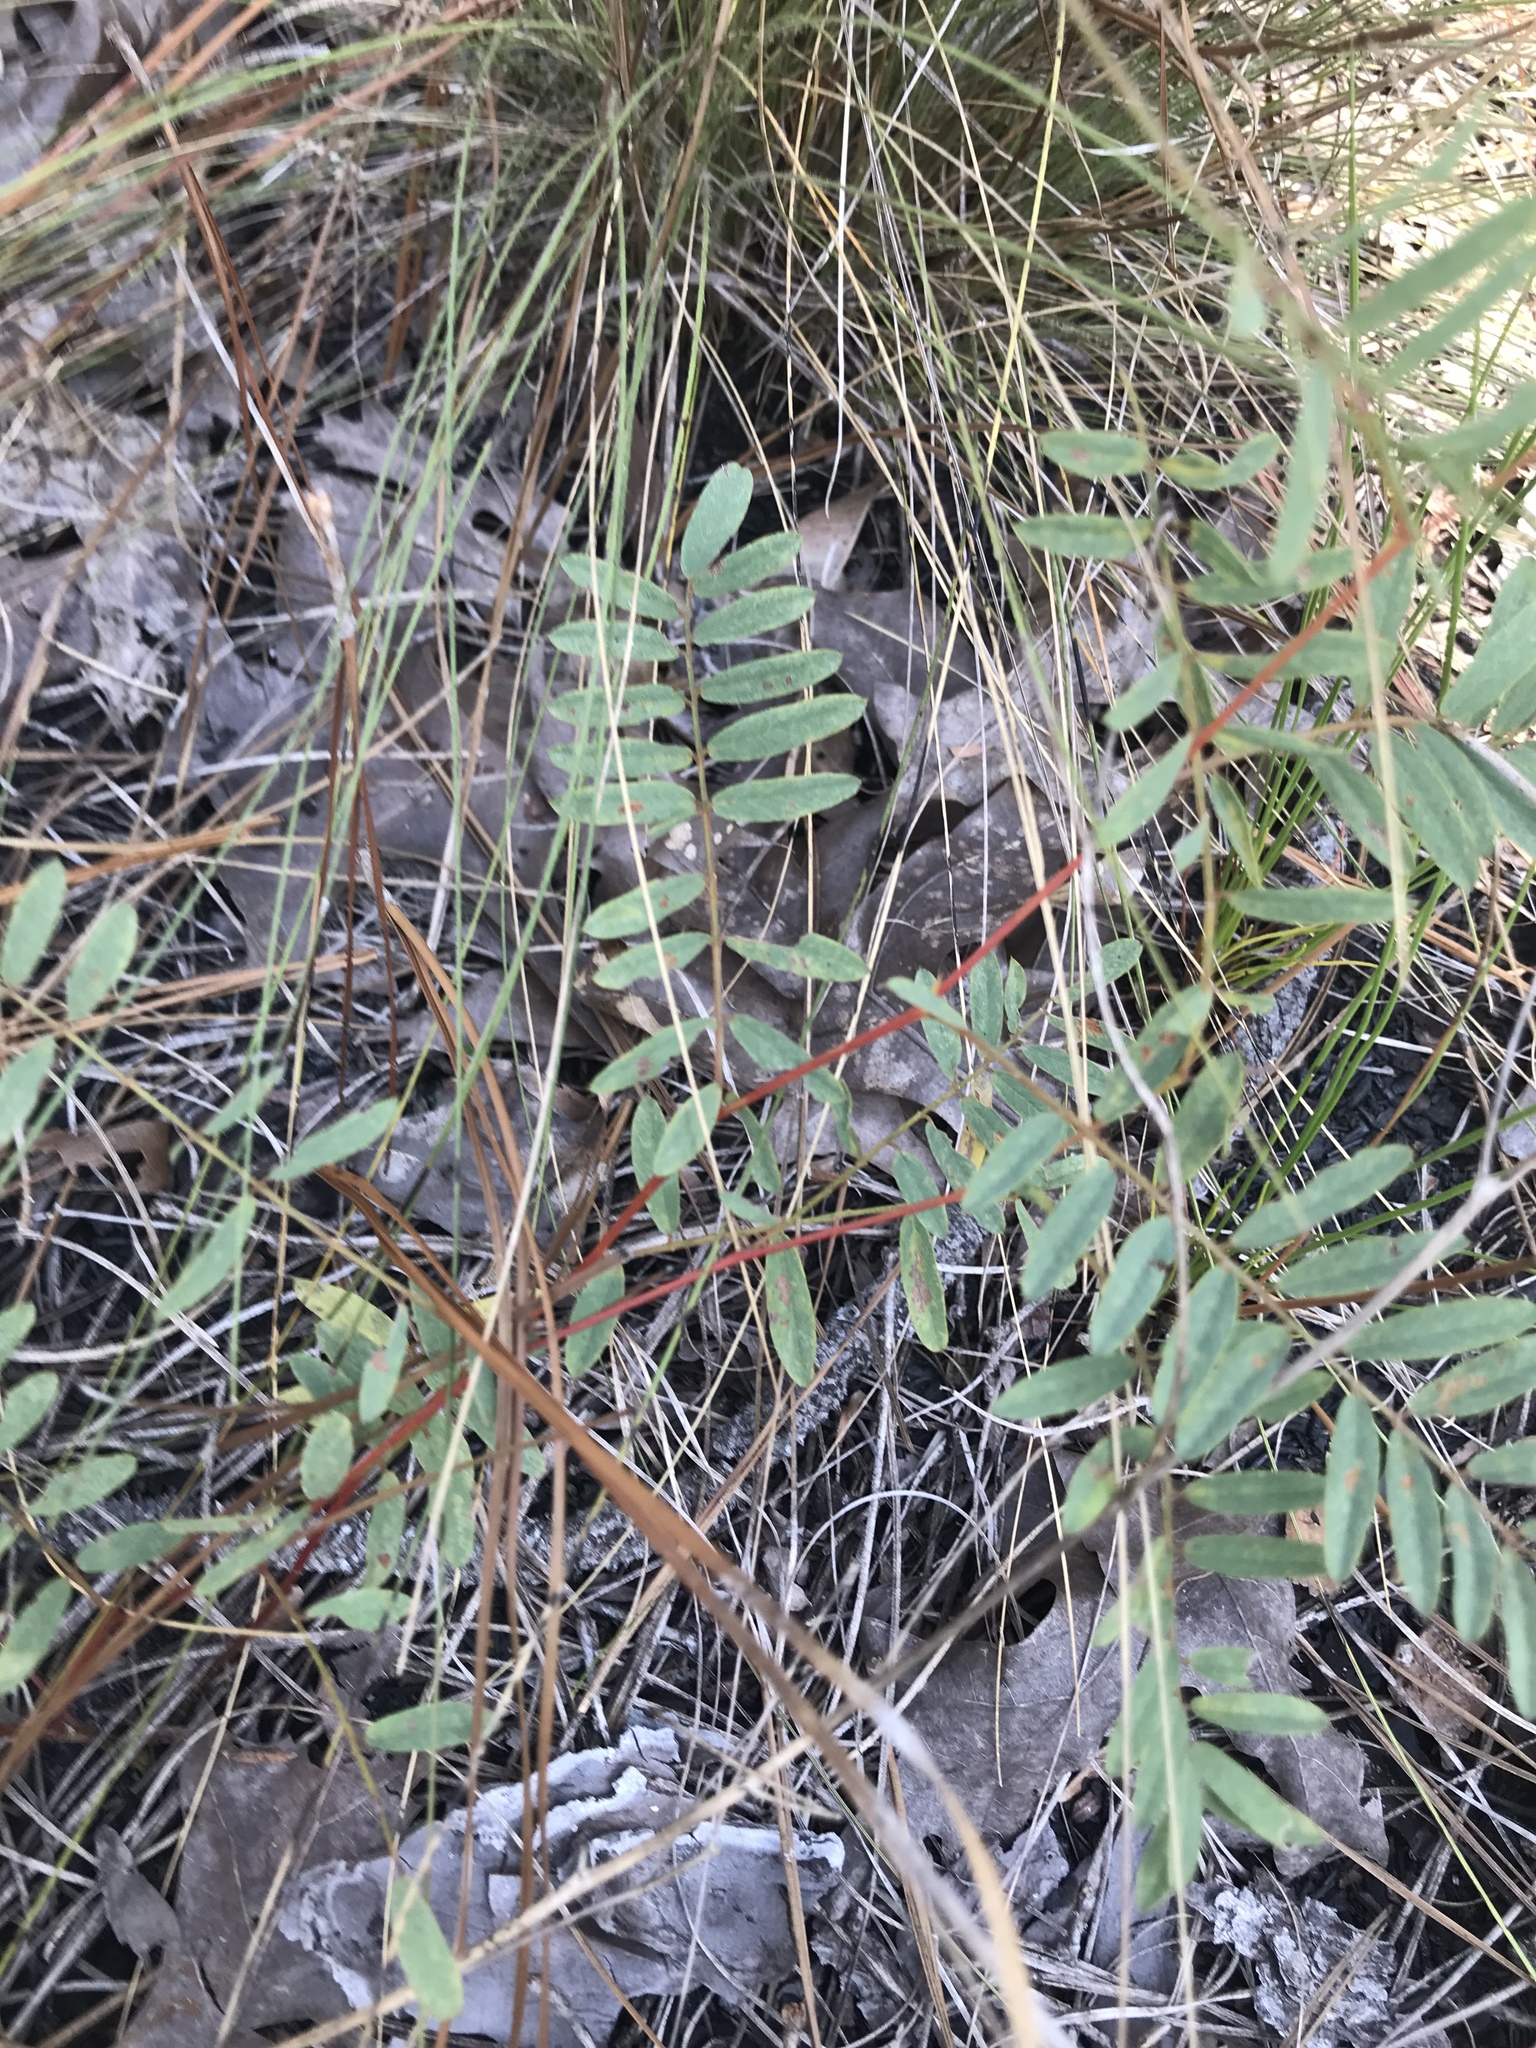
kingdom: Plantae
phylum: Tracheophyta
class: Magnoliopsida
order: Fabales
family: Fabaceae
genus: Tephrosia
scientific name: Tephrosia virginiana
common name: Rabbit-pea
